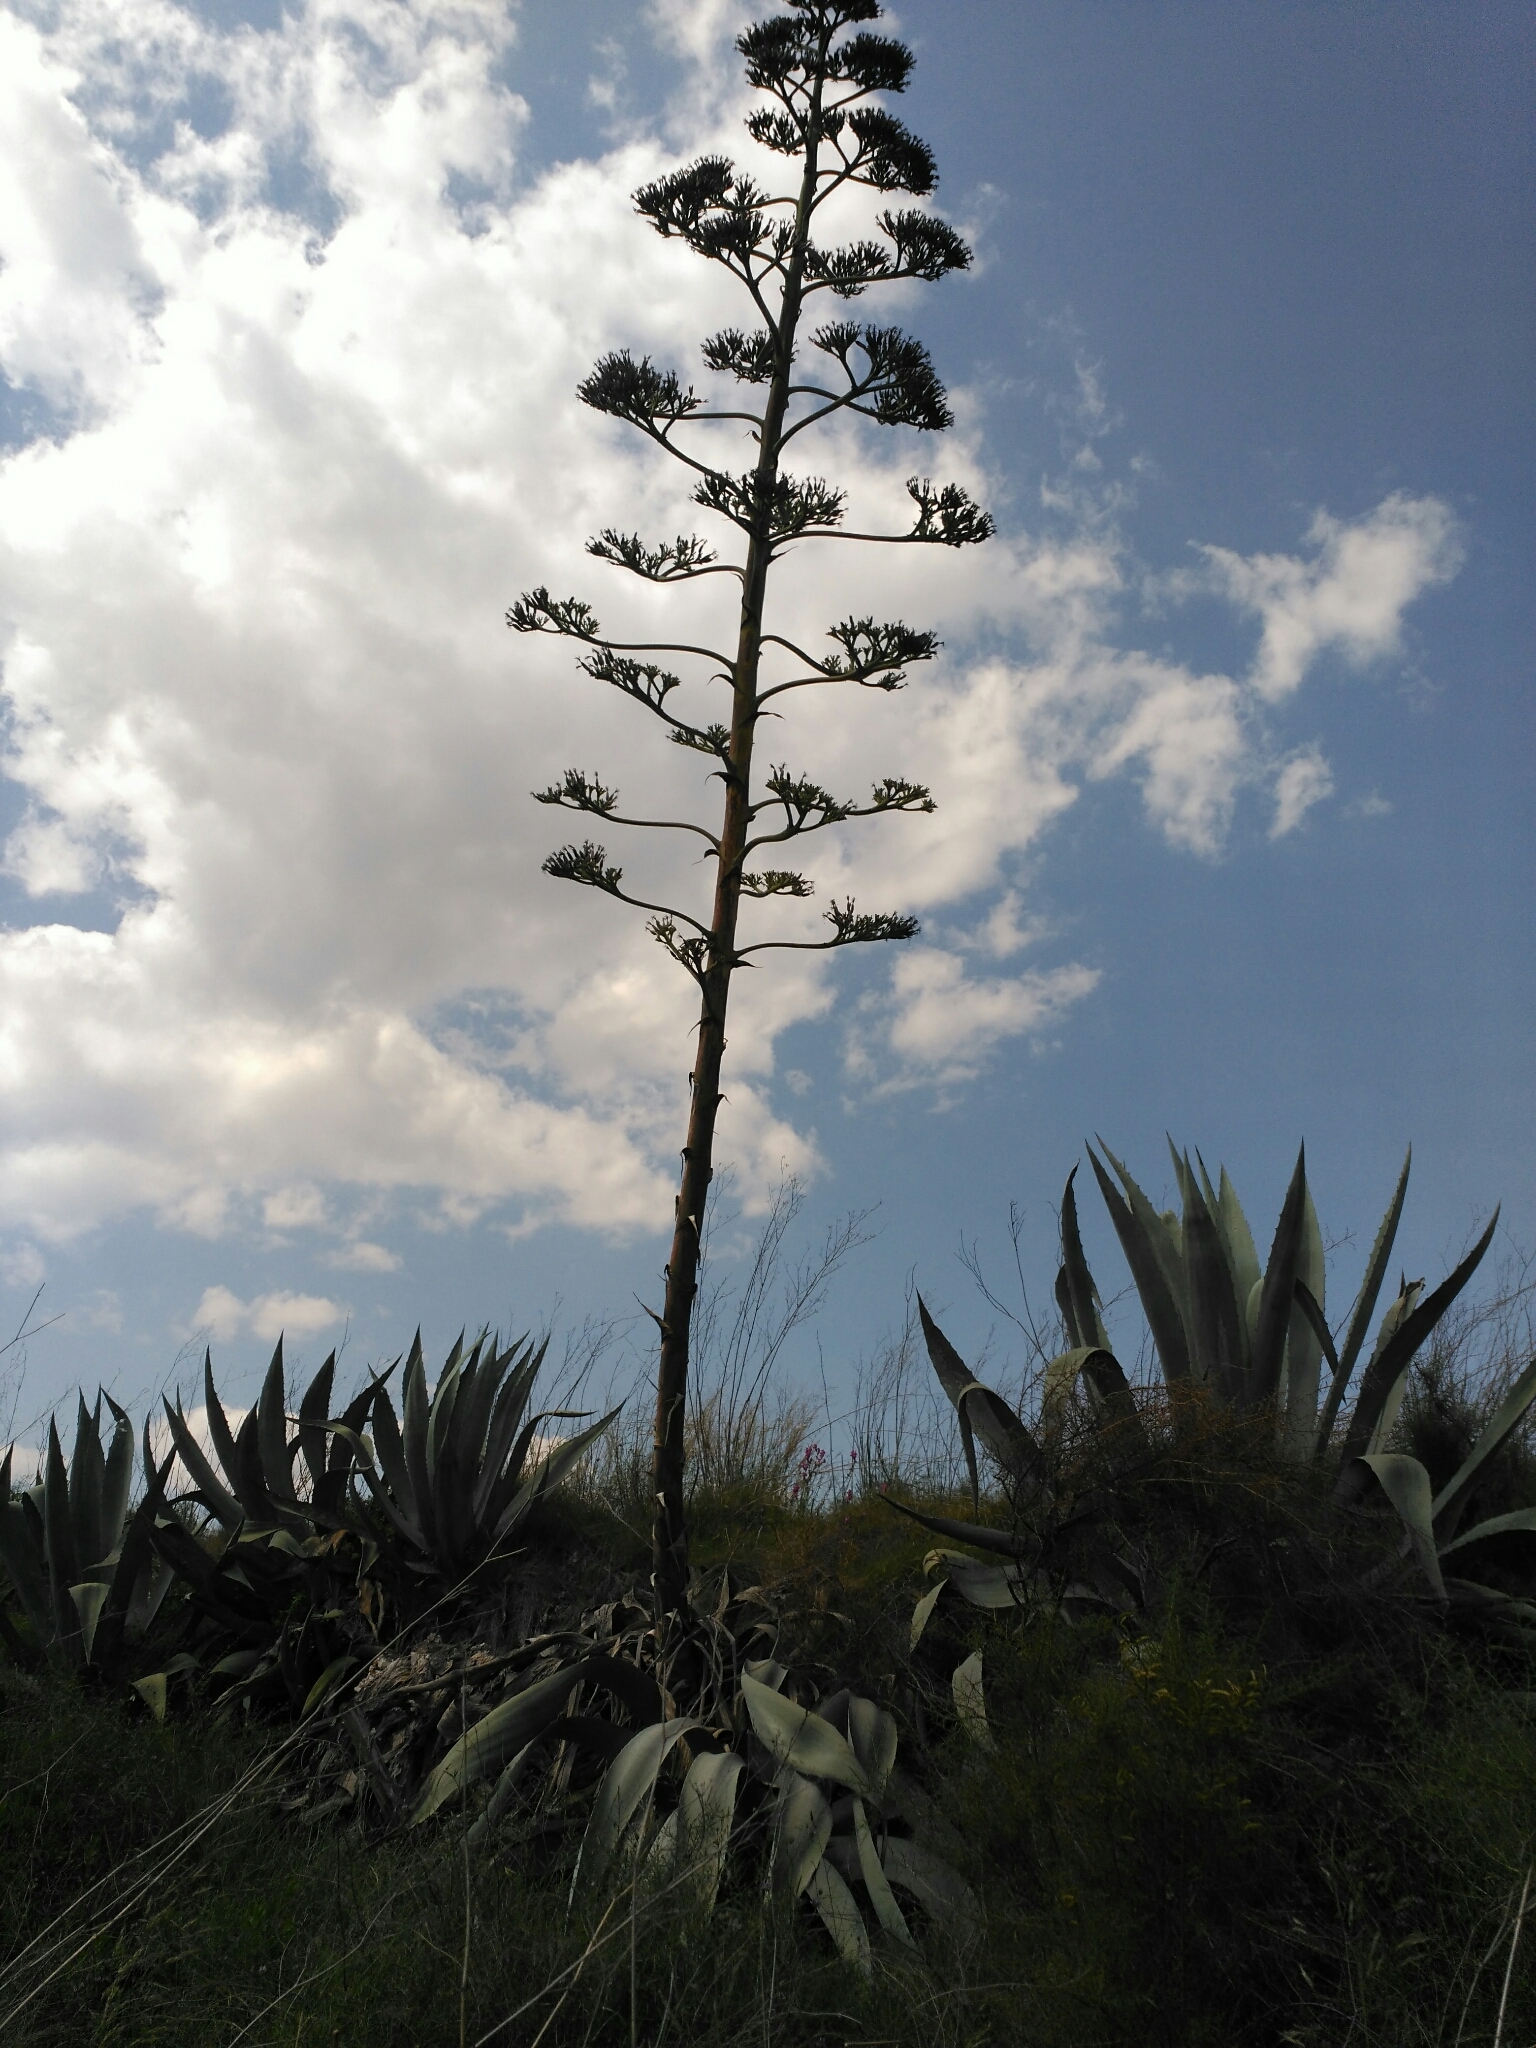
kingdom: Plantae
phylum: Tracheophyta
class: Liliopsida
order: Asparagales
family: Asparagaceae
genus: Agave
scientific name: Agave americana
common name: Centuryplant
